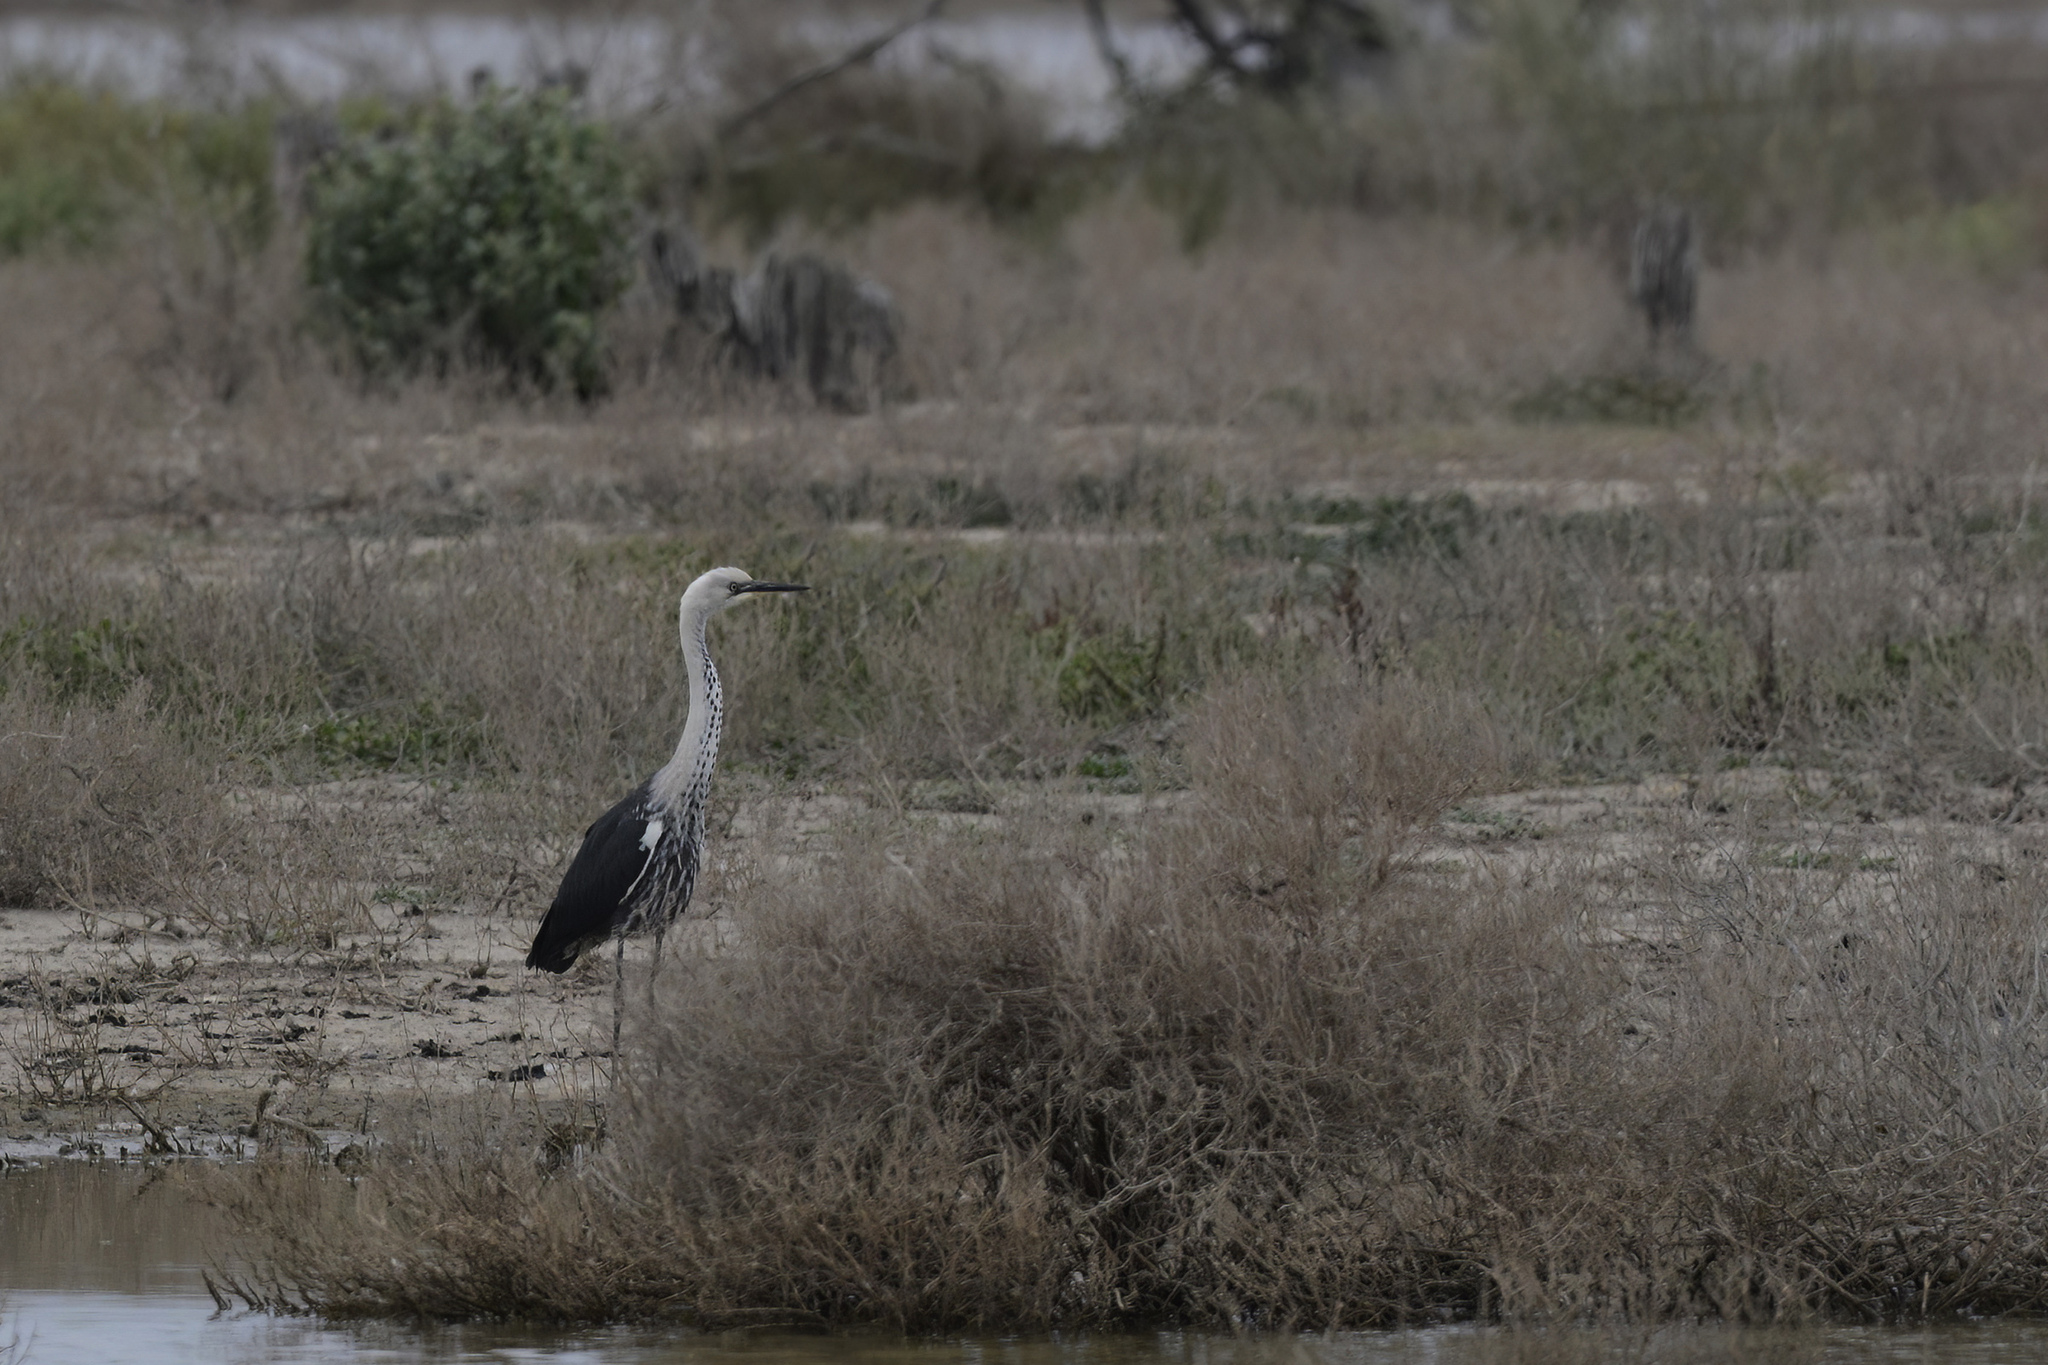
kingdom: Animalia
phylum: Chordata
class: Aves
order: Pelecaniformes
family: Ardeidae
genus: Ardea
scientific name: Ardea pacifica
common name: White-necked heron
